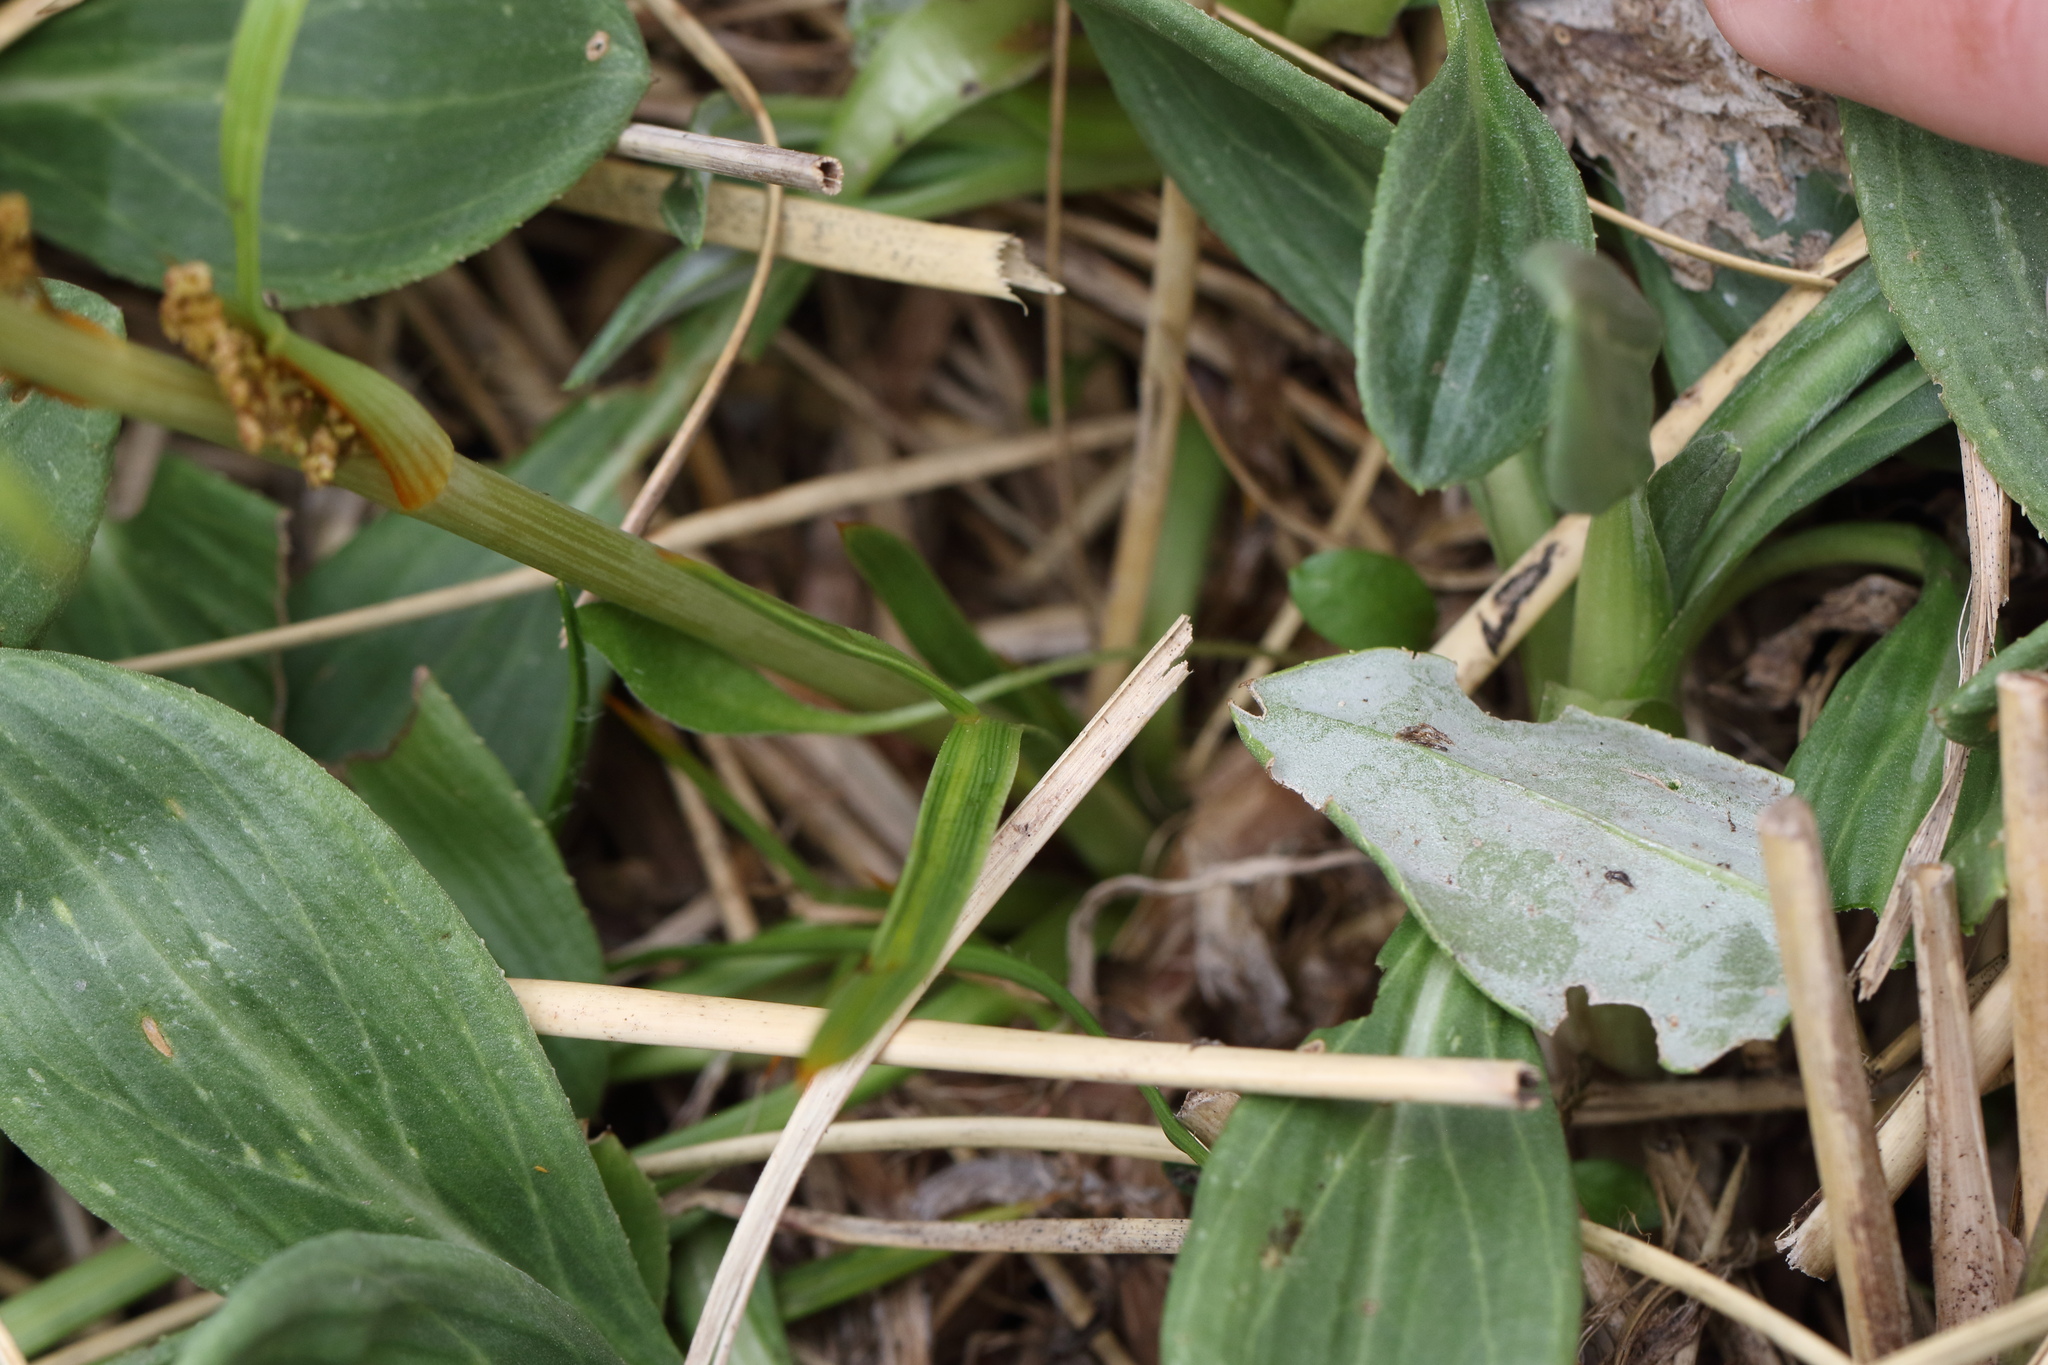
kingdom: Plantae
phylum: Tracheophyta
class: Magnoliopsida
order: Apiales
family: Apiaceae
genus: Aciphylla
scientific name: Aciphylla crenulata
